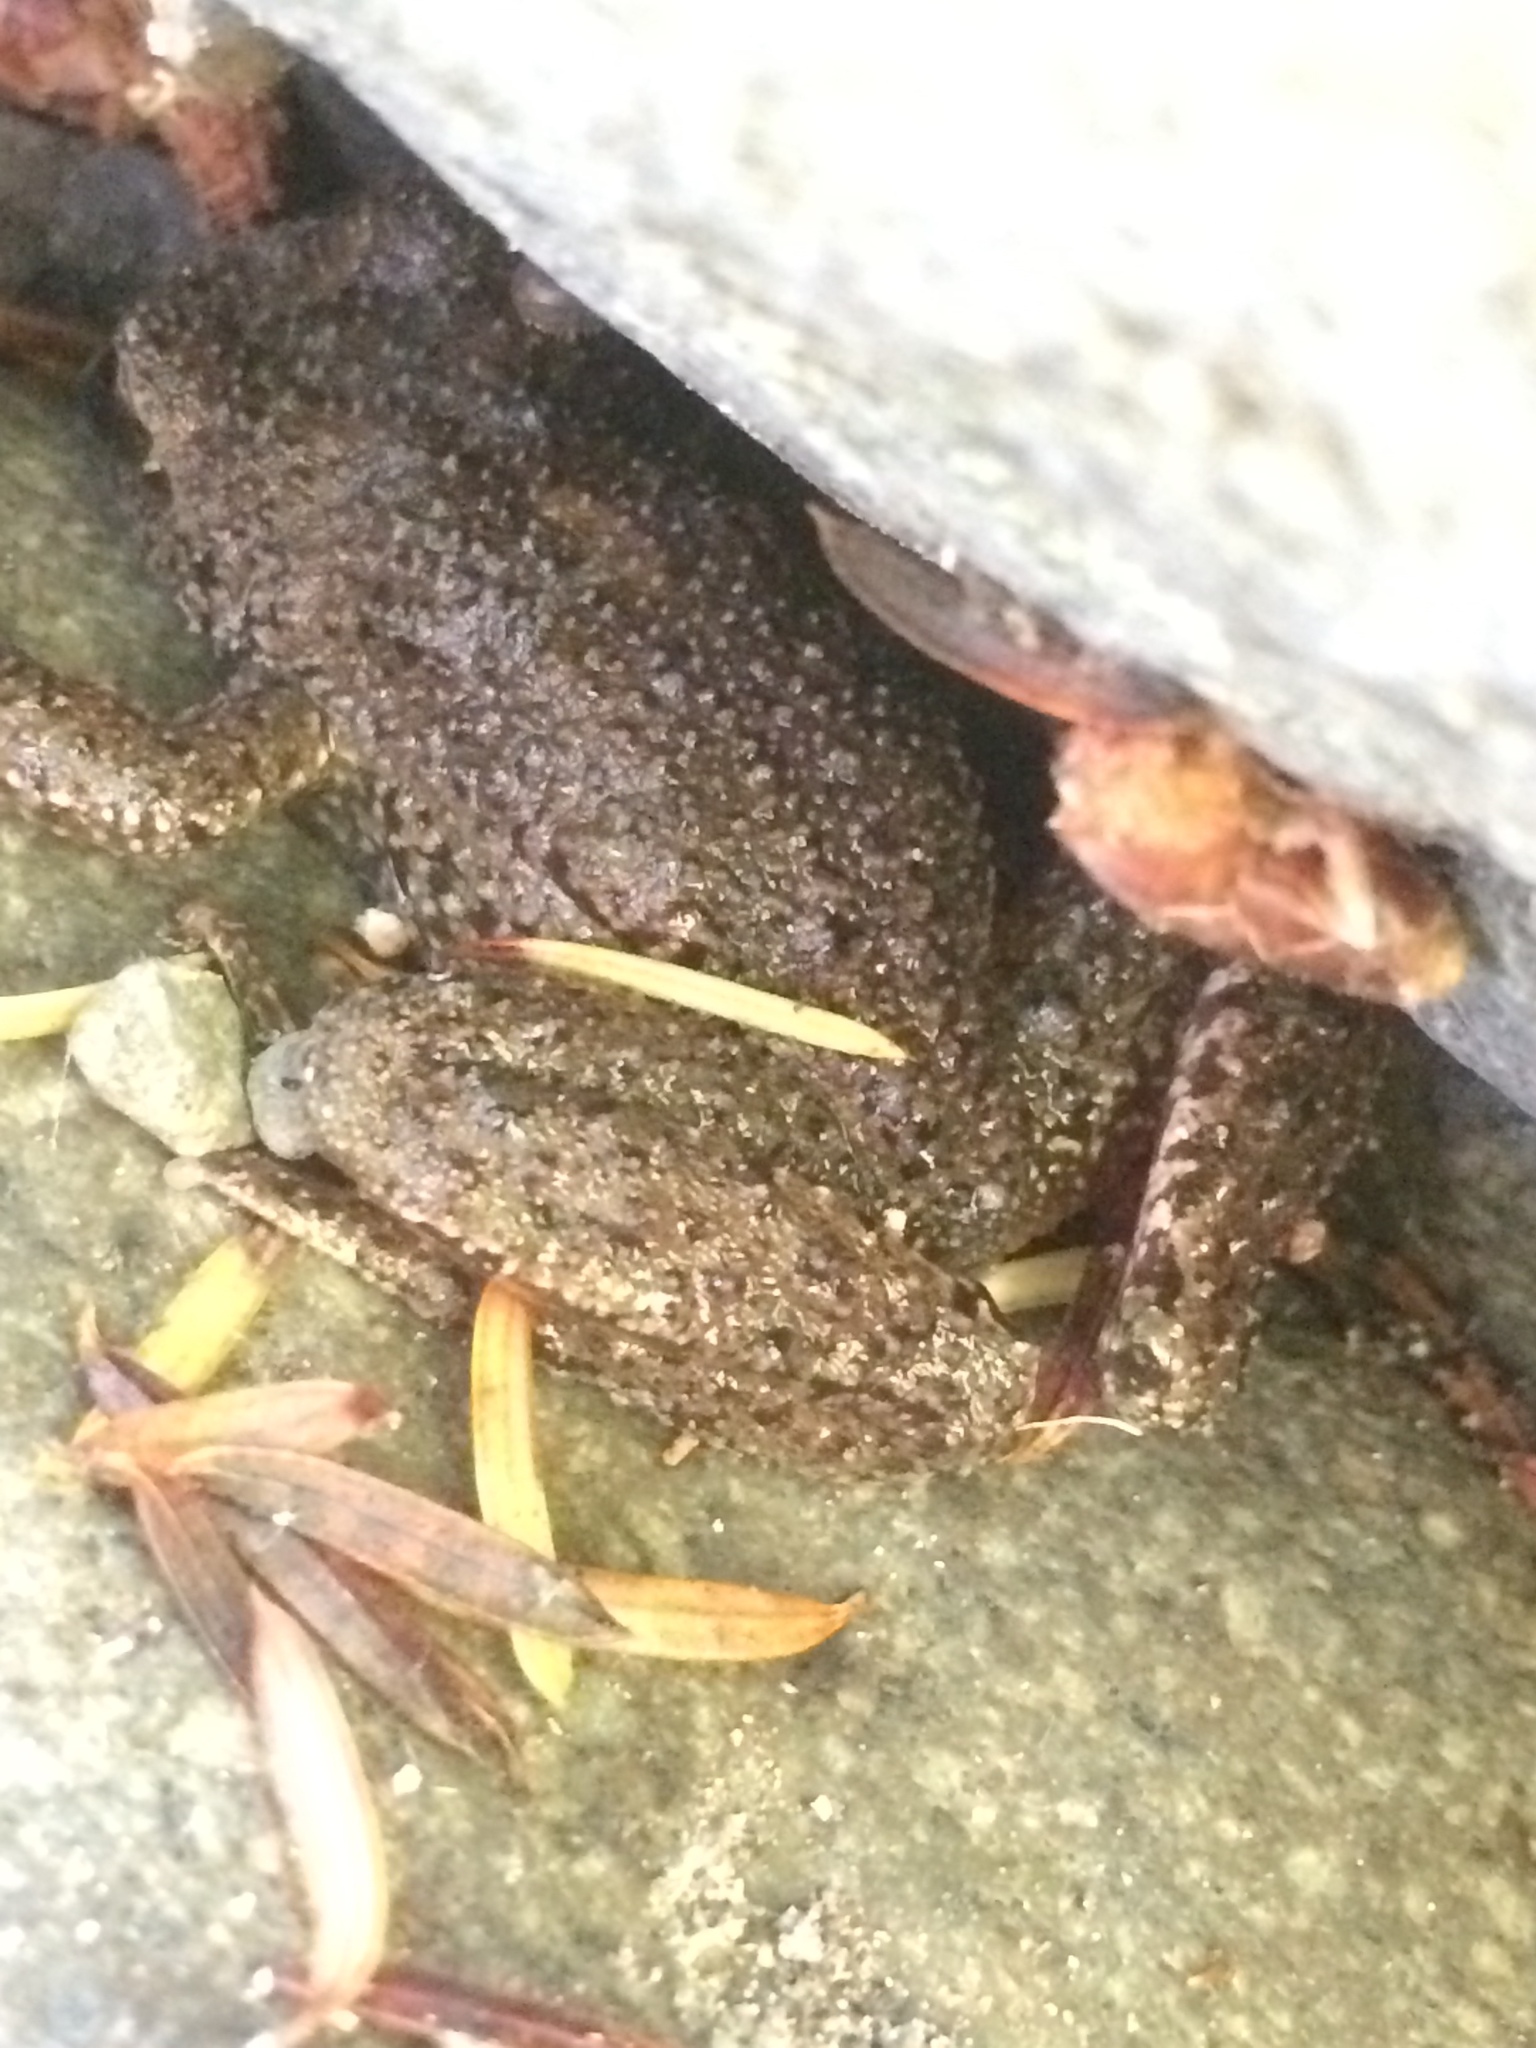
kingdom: Animalia
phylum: Chordata
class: Amphibia
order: Anura
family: Ascaphidae
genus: Ascaphus
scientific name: Ascaphus truei
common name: Tailed frog
